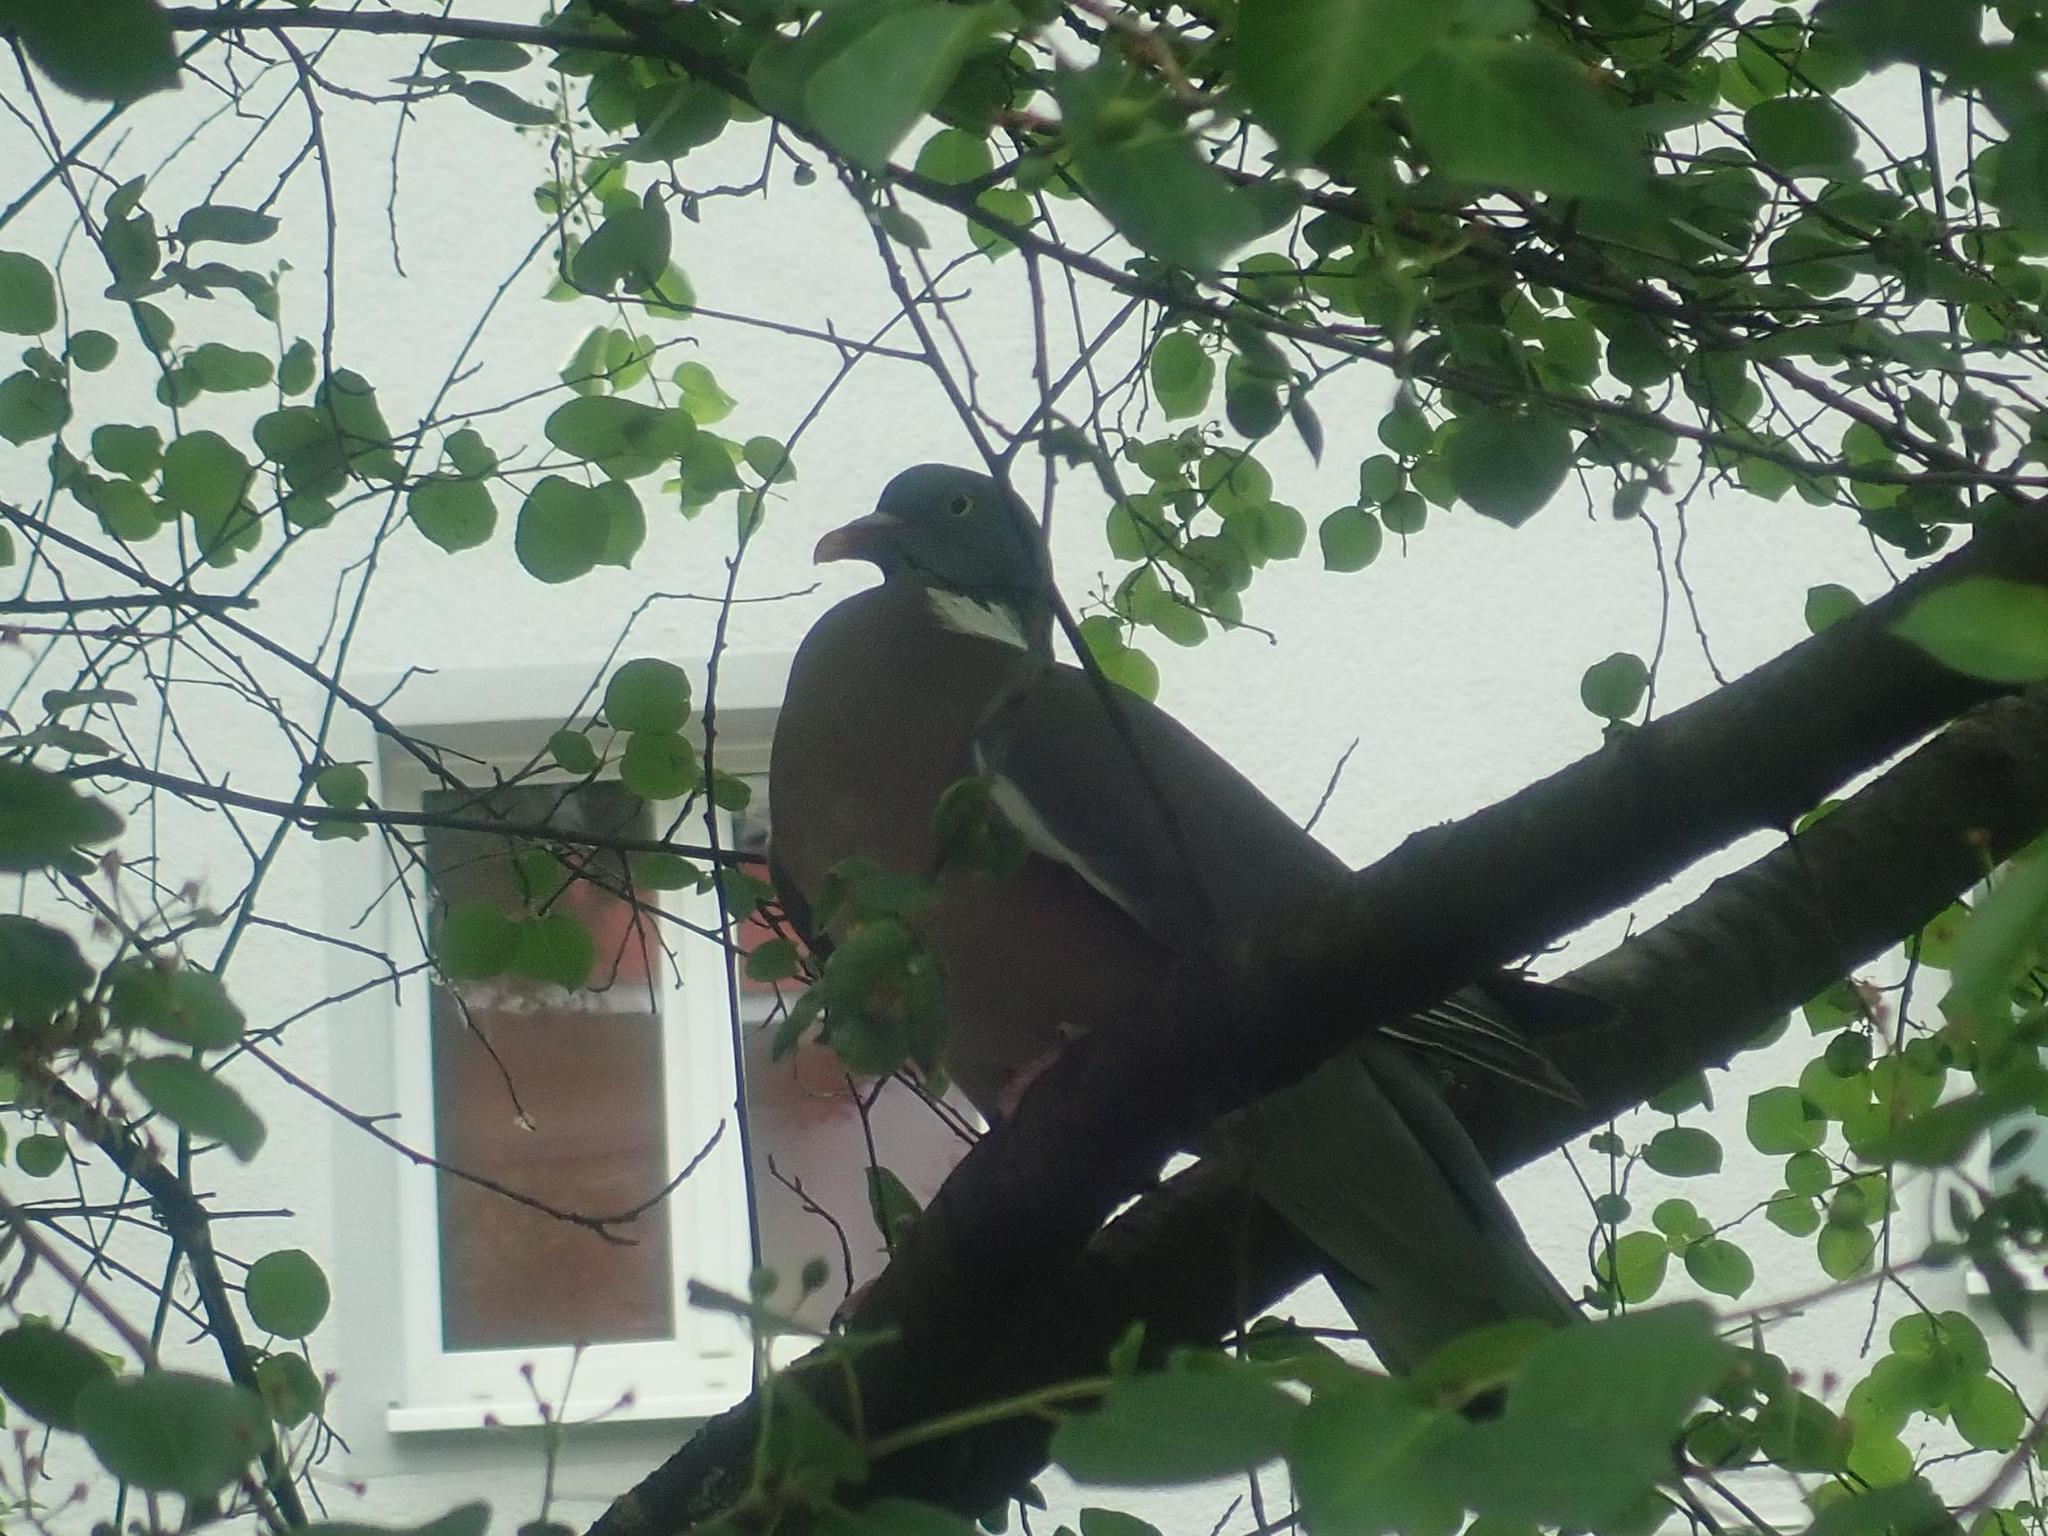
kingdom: Animalia
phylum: Chordata
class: Aves
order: Columbiformes
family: Columbidae
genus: Columba
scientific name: Columba palumbus
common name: Common wood pigeon
